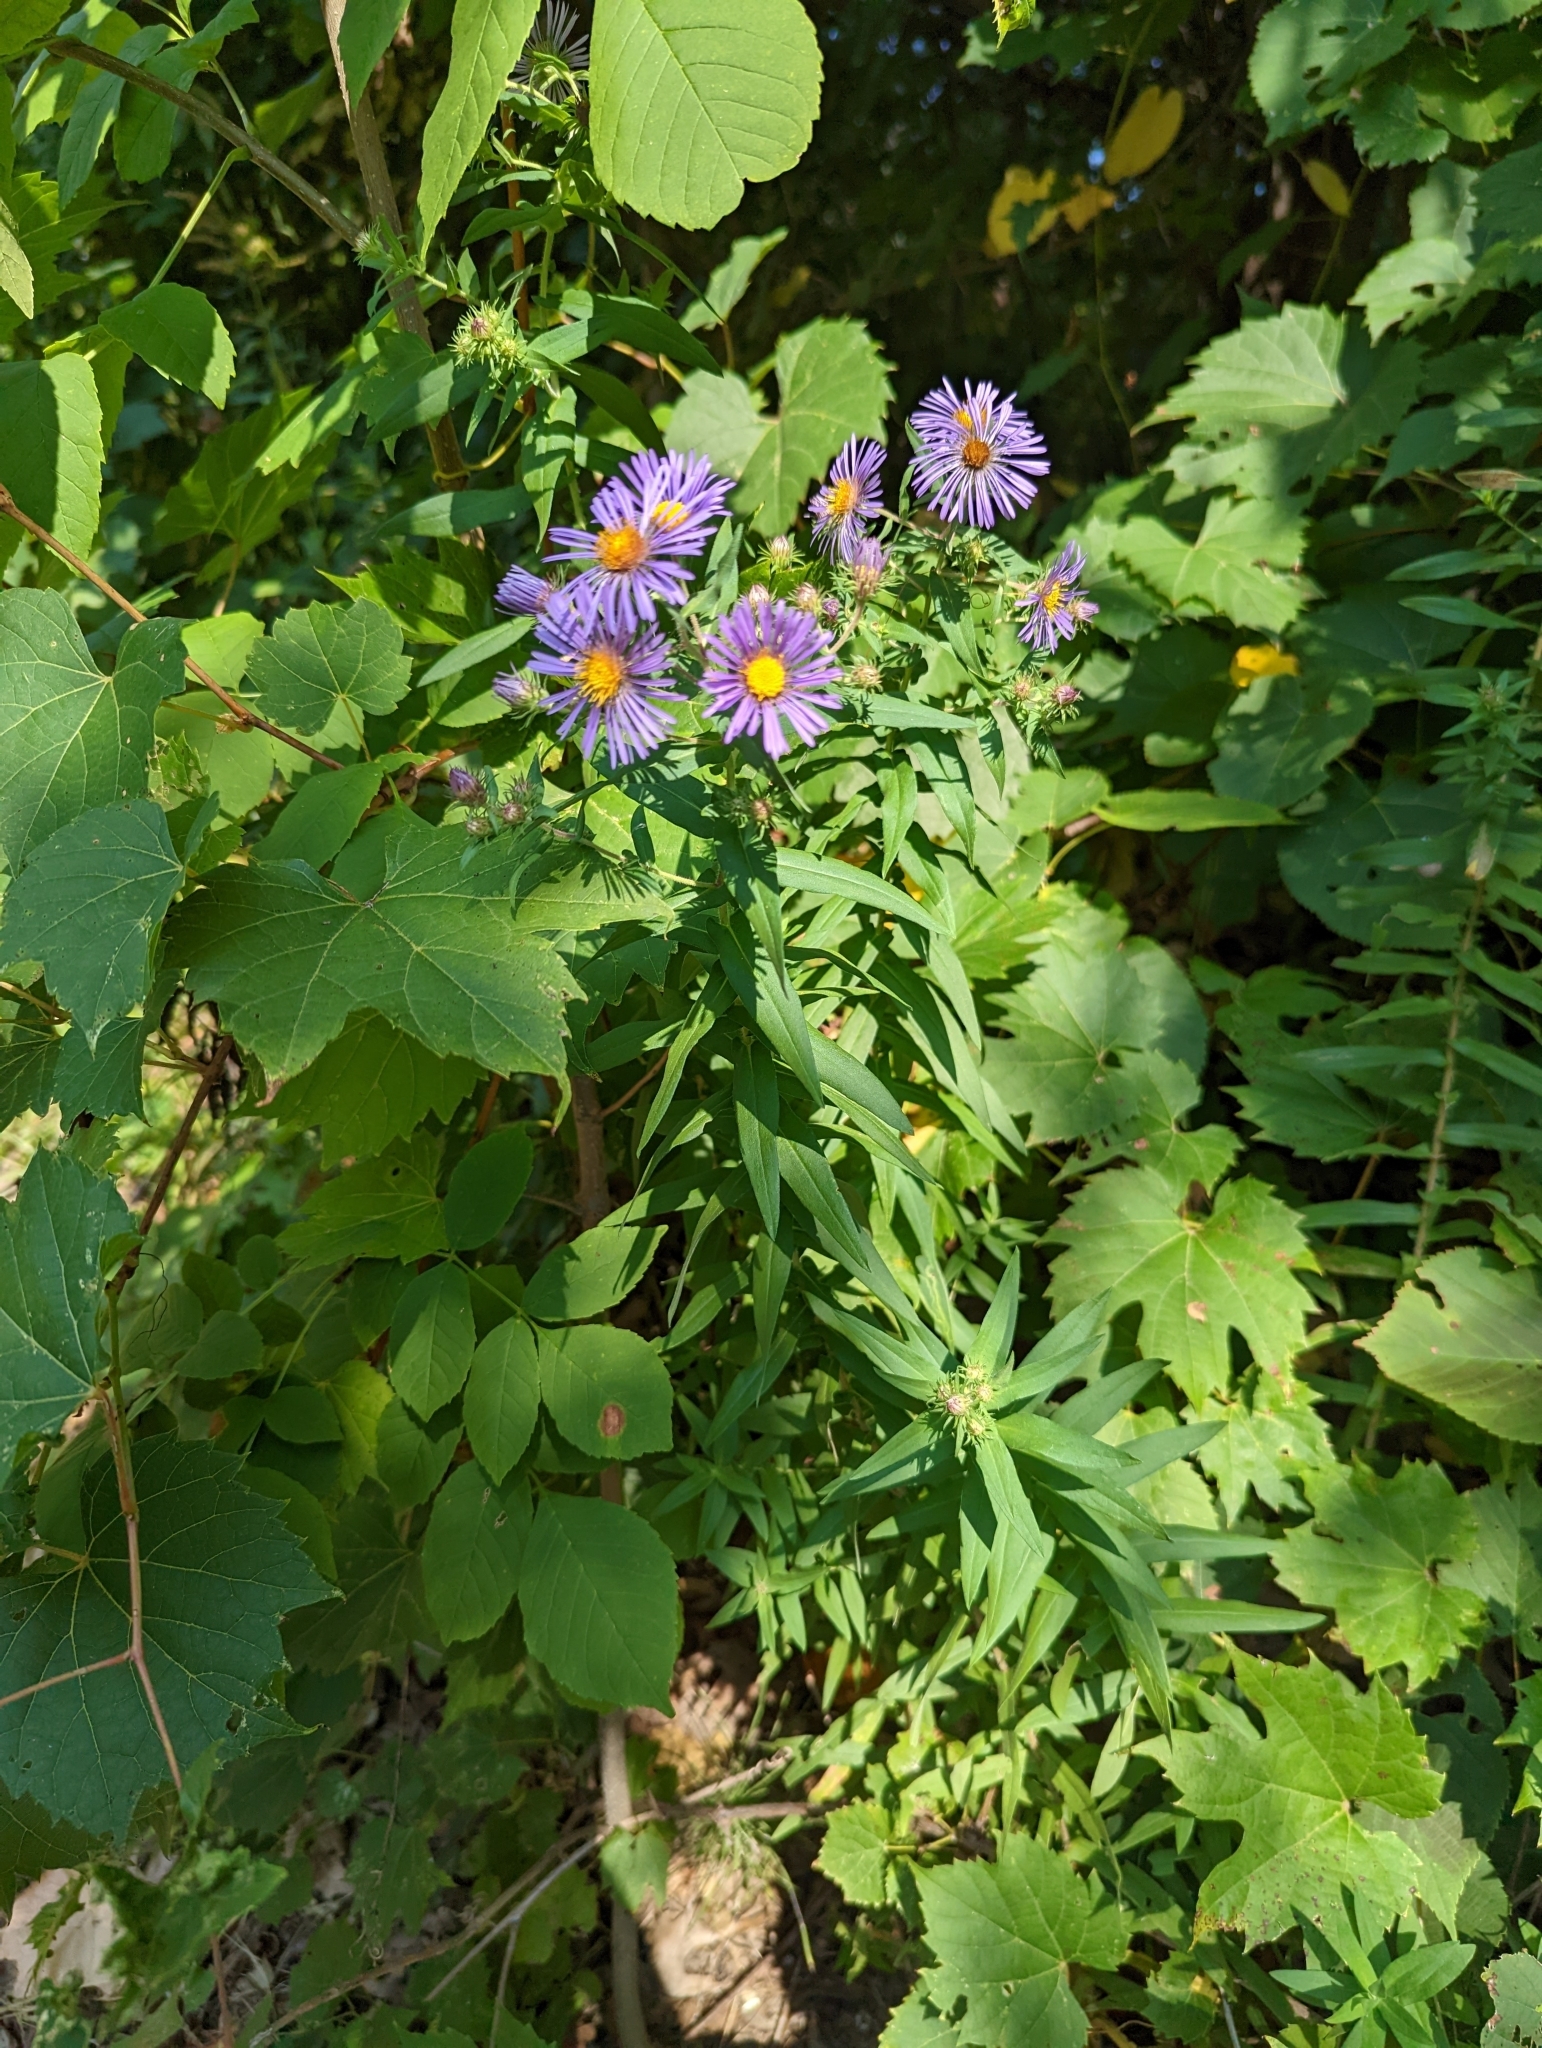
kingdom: Plantae
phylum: Tracheophyta
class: Magnoliopsida
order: Asterales
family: Asteraceae
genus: Symphyotrichum
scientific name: Symphyotrichum novae-angliae
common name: Michaelmas daisy
